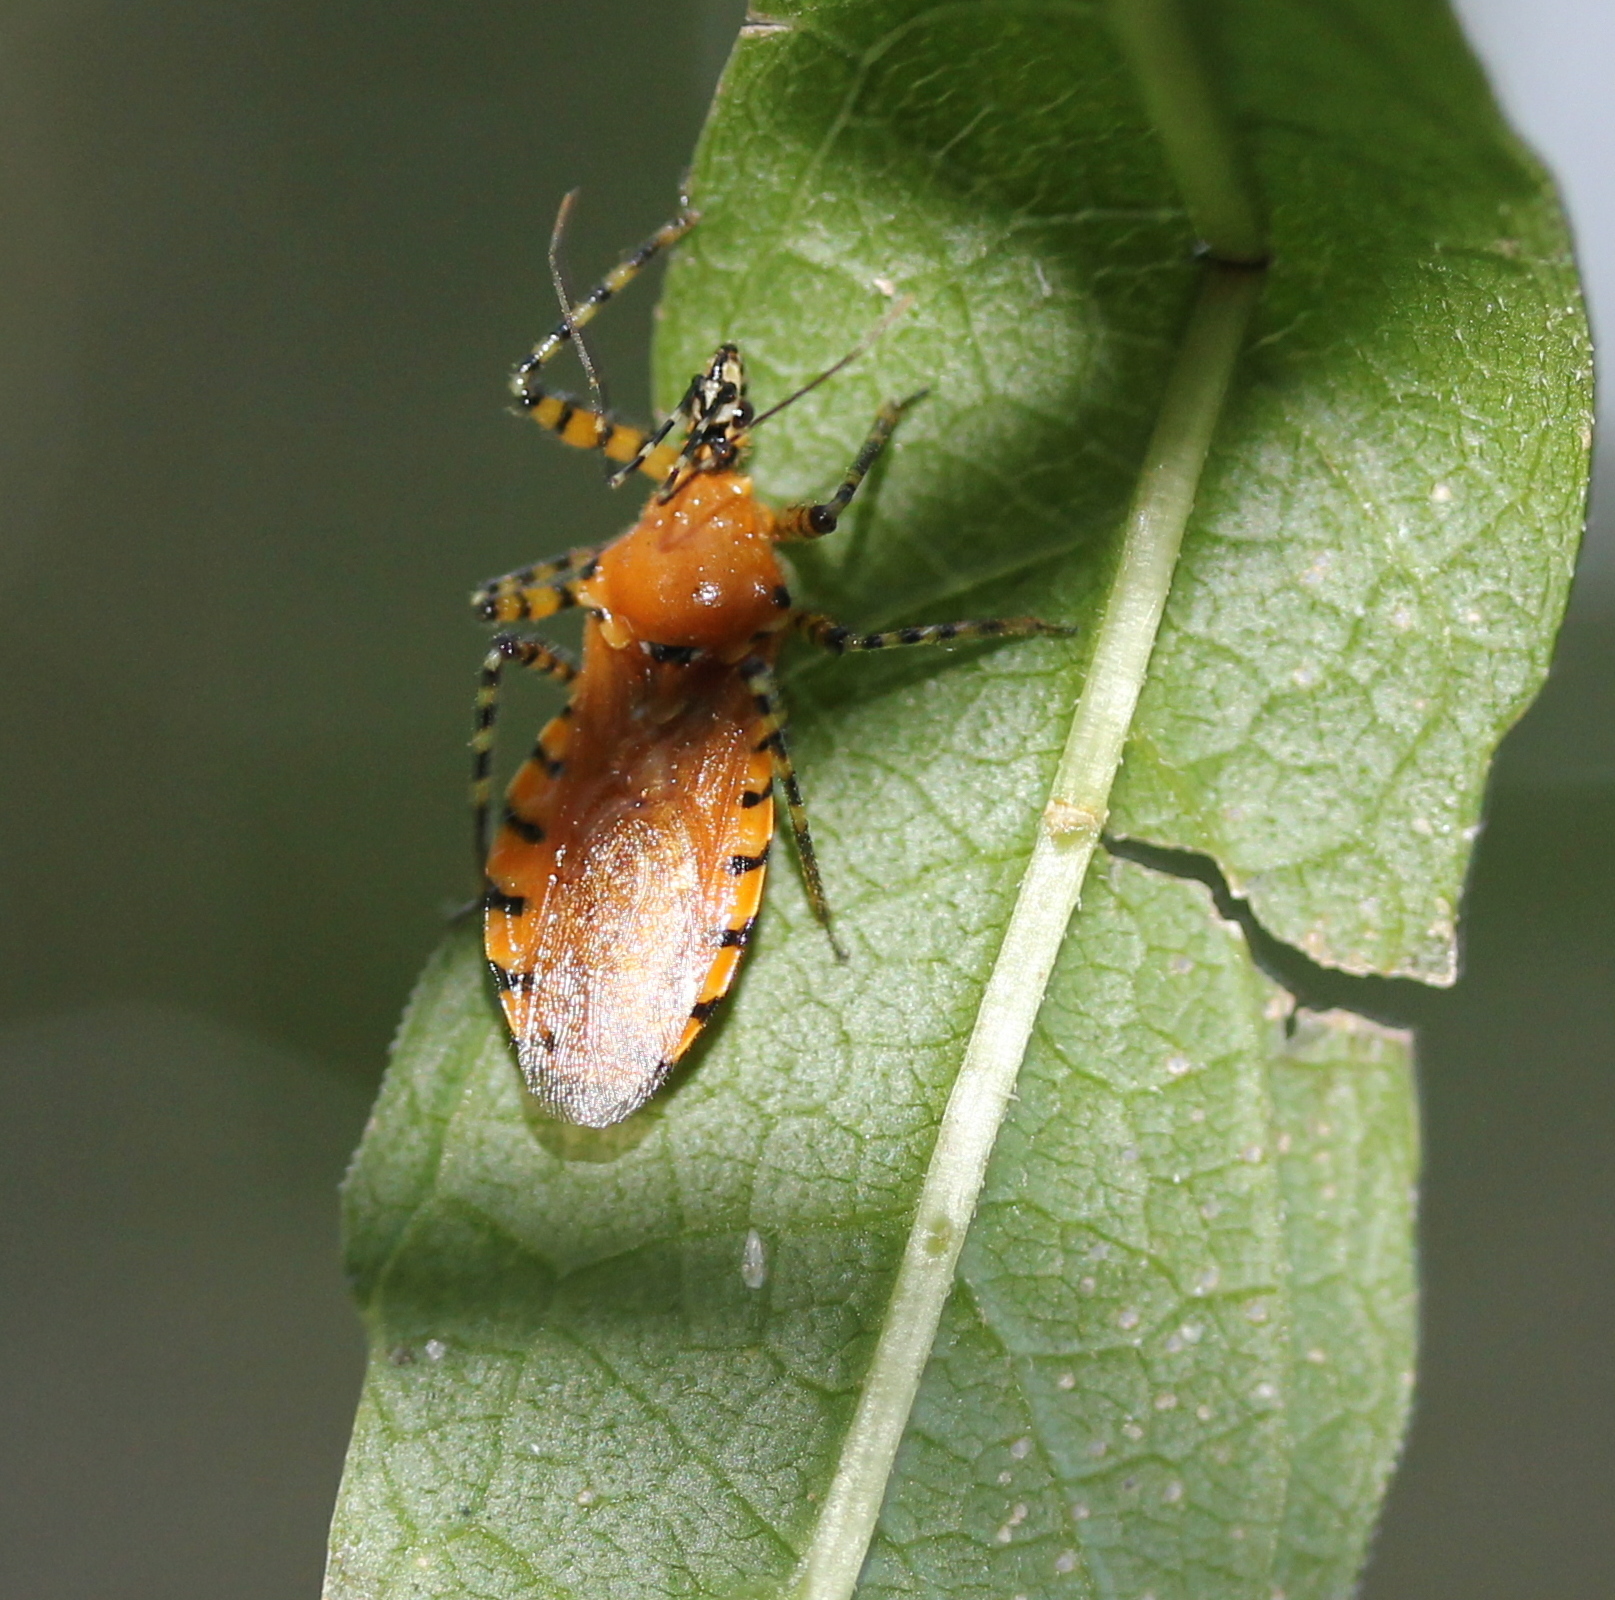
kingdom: Animalia
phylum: Arthropoda
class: Insecta
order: Hemiptera
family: Reduviidae
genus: Pselliopus
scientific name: Pselliopus barberi
